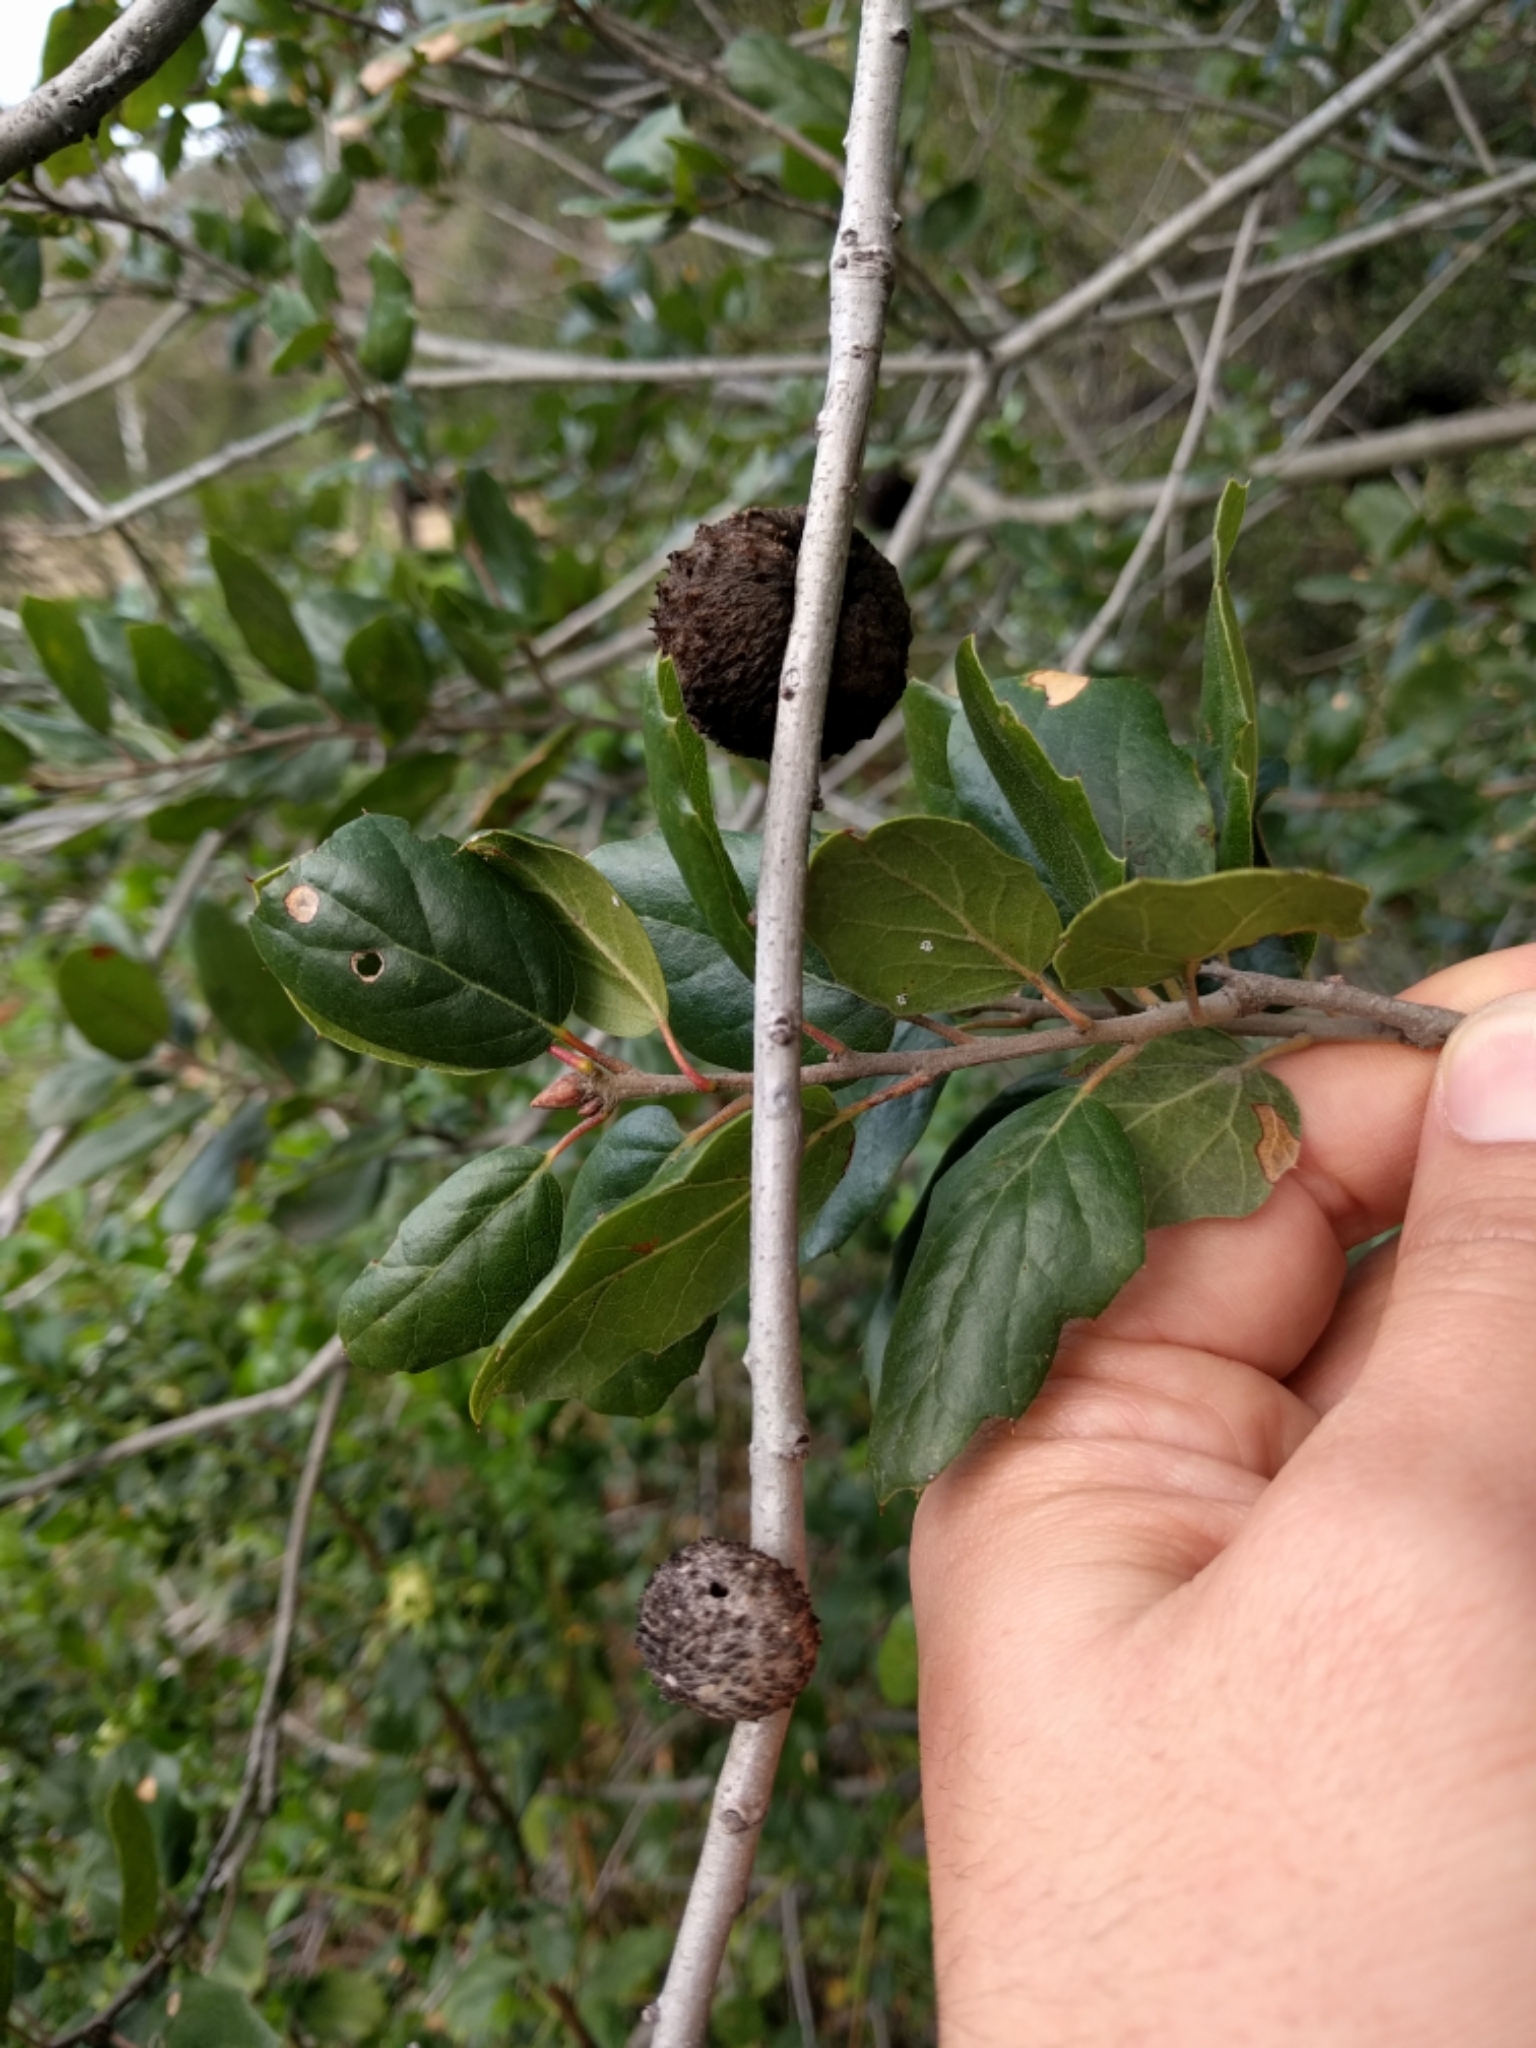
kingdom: Animalia
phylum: Arthropoda
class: Insecta
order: Hymenoptera
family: Cynipidae
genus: Amphibolips
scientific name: Amphibolips quercuspomiformis
